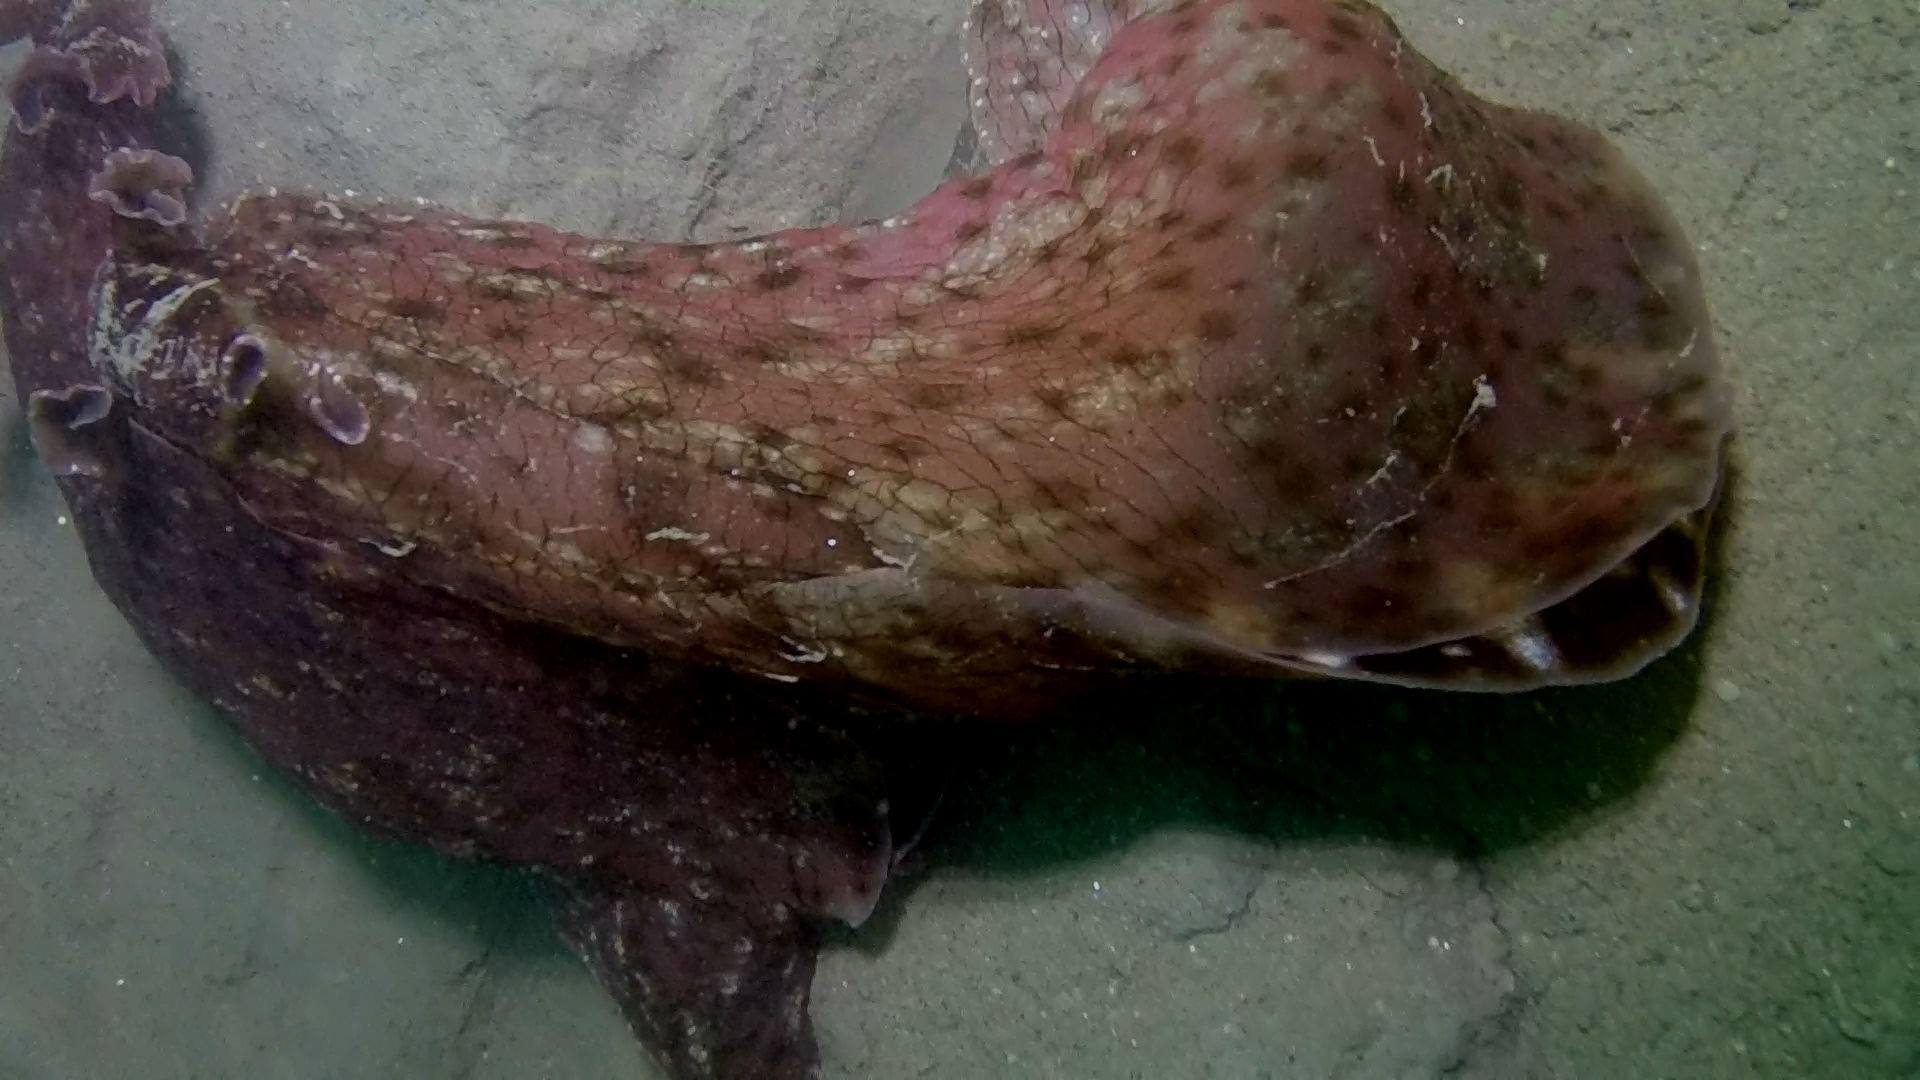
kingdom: Animalia
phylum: Mollusca
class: Gastropoda
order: Aplysiida
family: Aplysiidae
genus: Aplysia
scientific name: Aplysia californica
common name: California seahare
